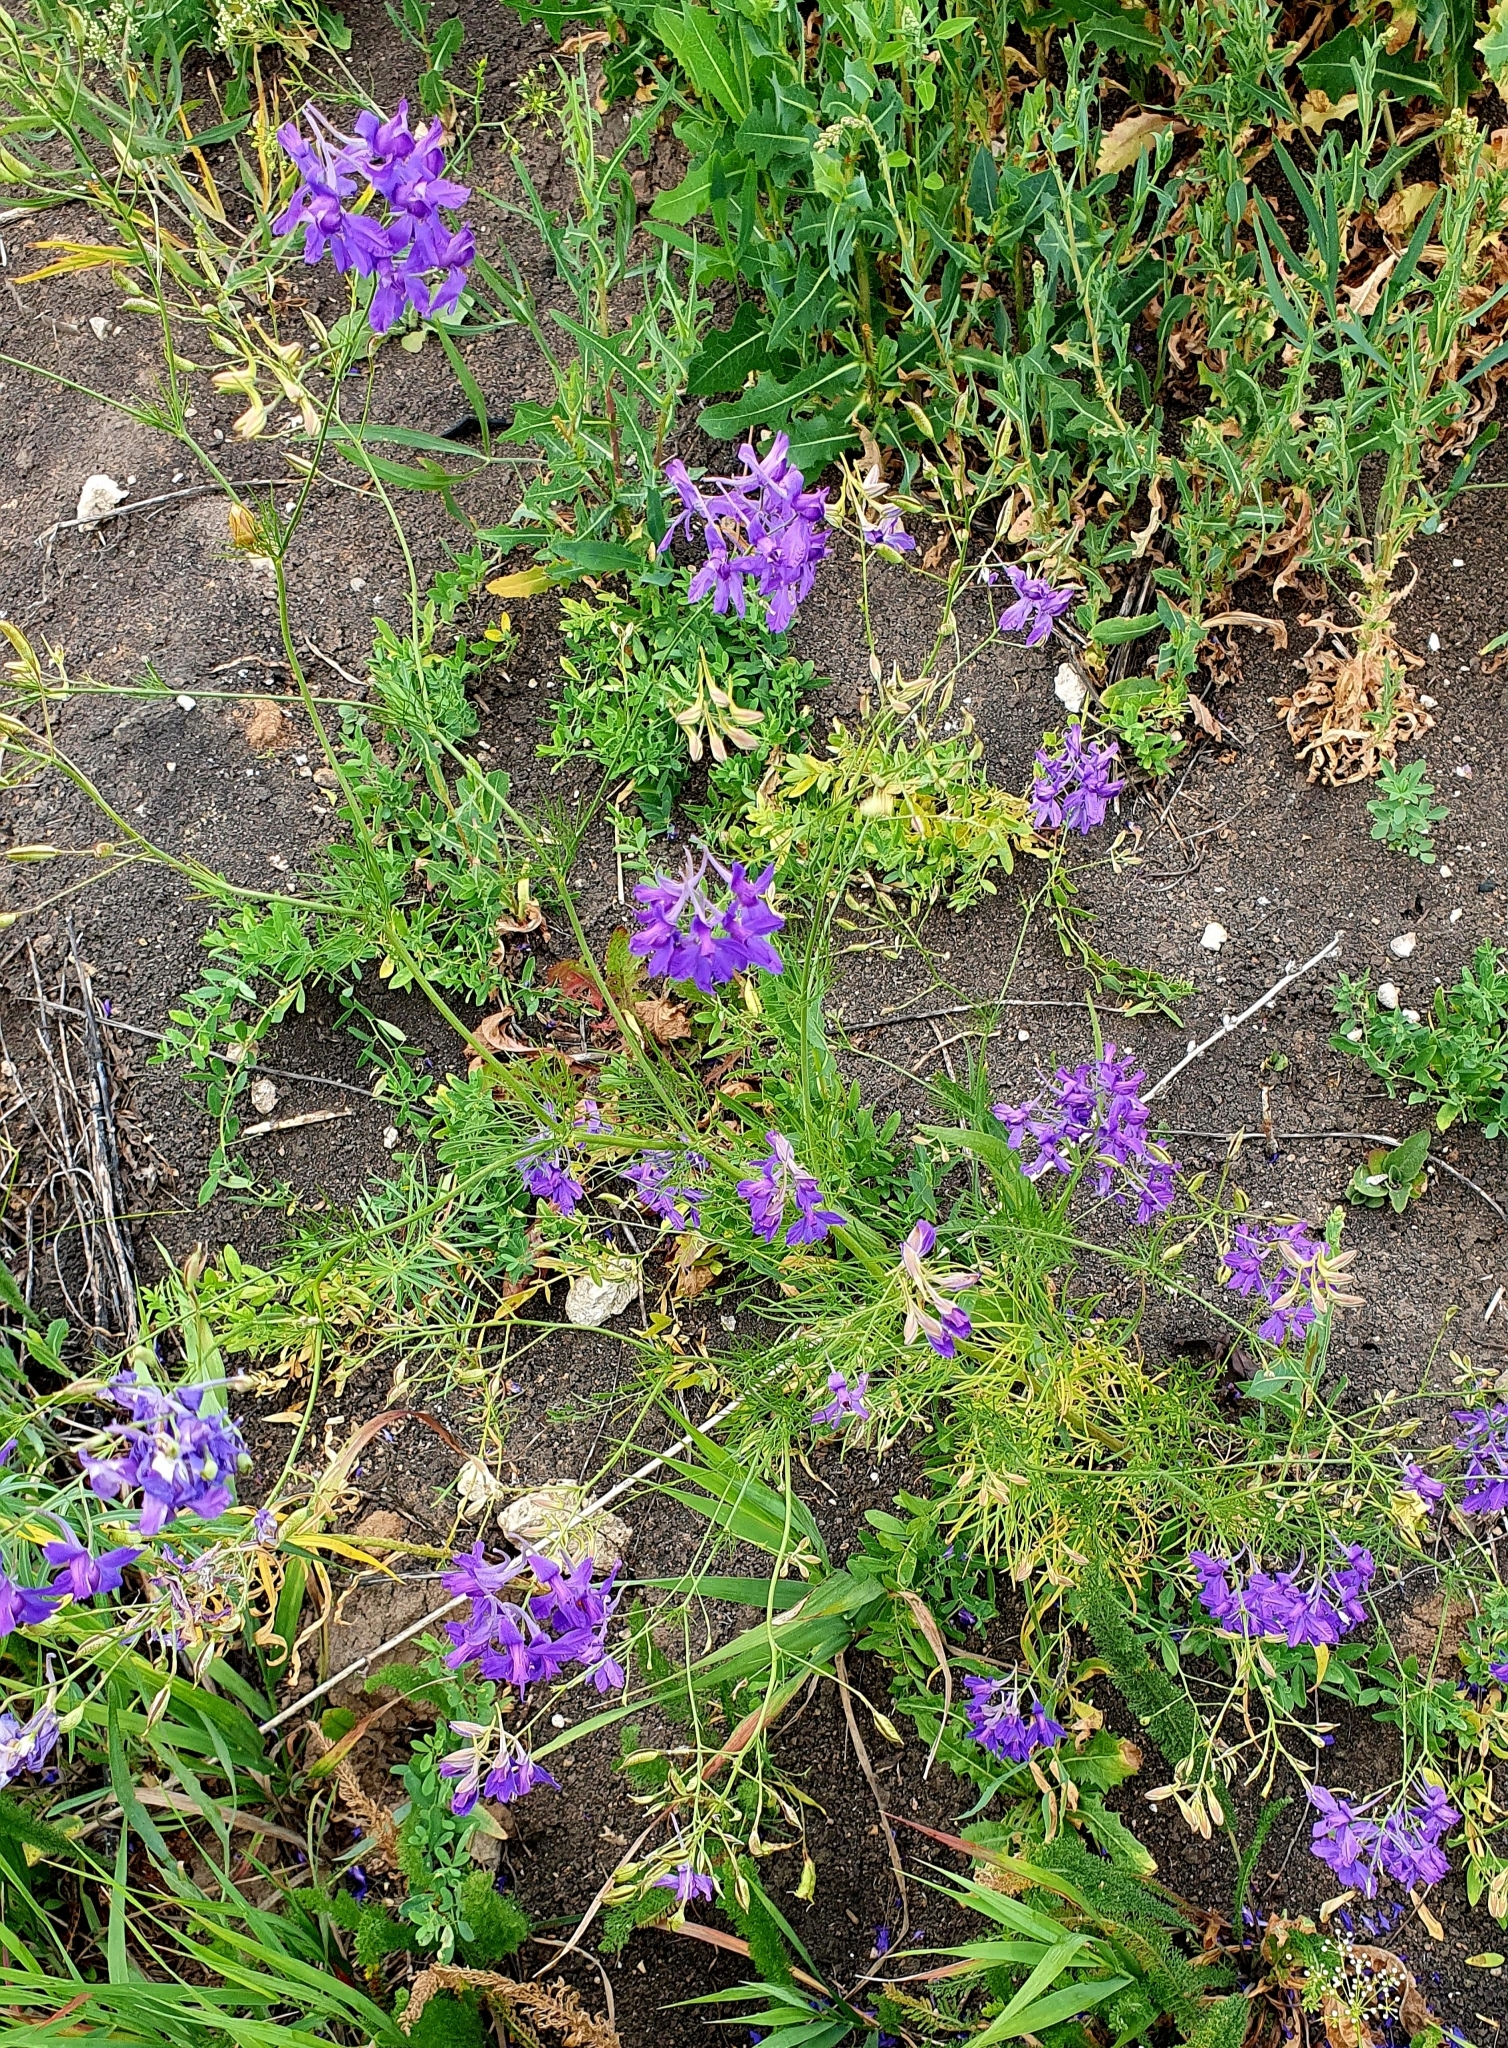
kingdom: Plantae
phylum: Tracheophyta
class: Magnoliopsida
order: Ranunculales
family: Ranunculaceae
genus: Delphinium
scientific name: Delphinium consolida
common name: Branching larkspur
